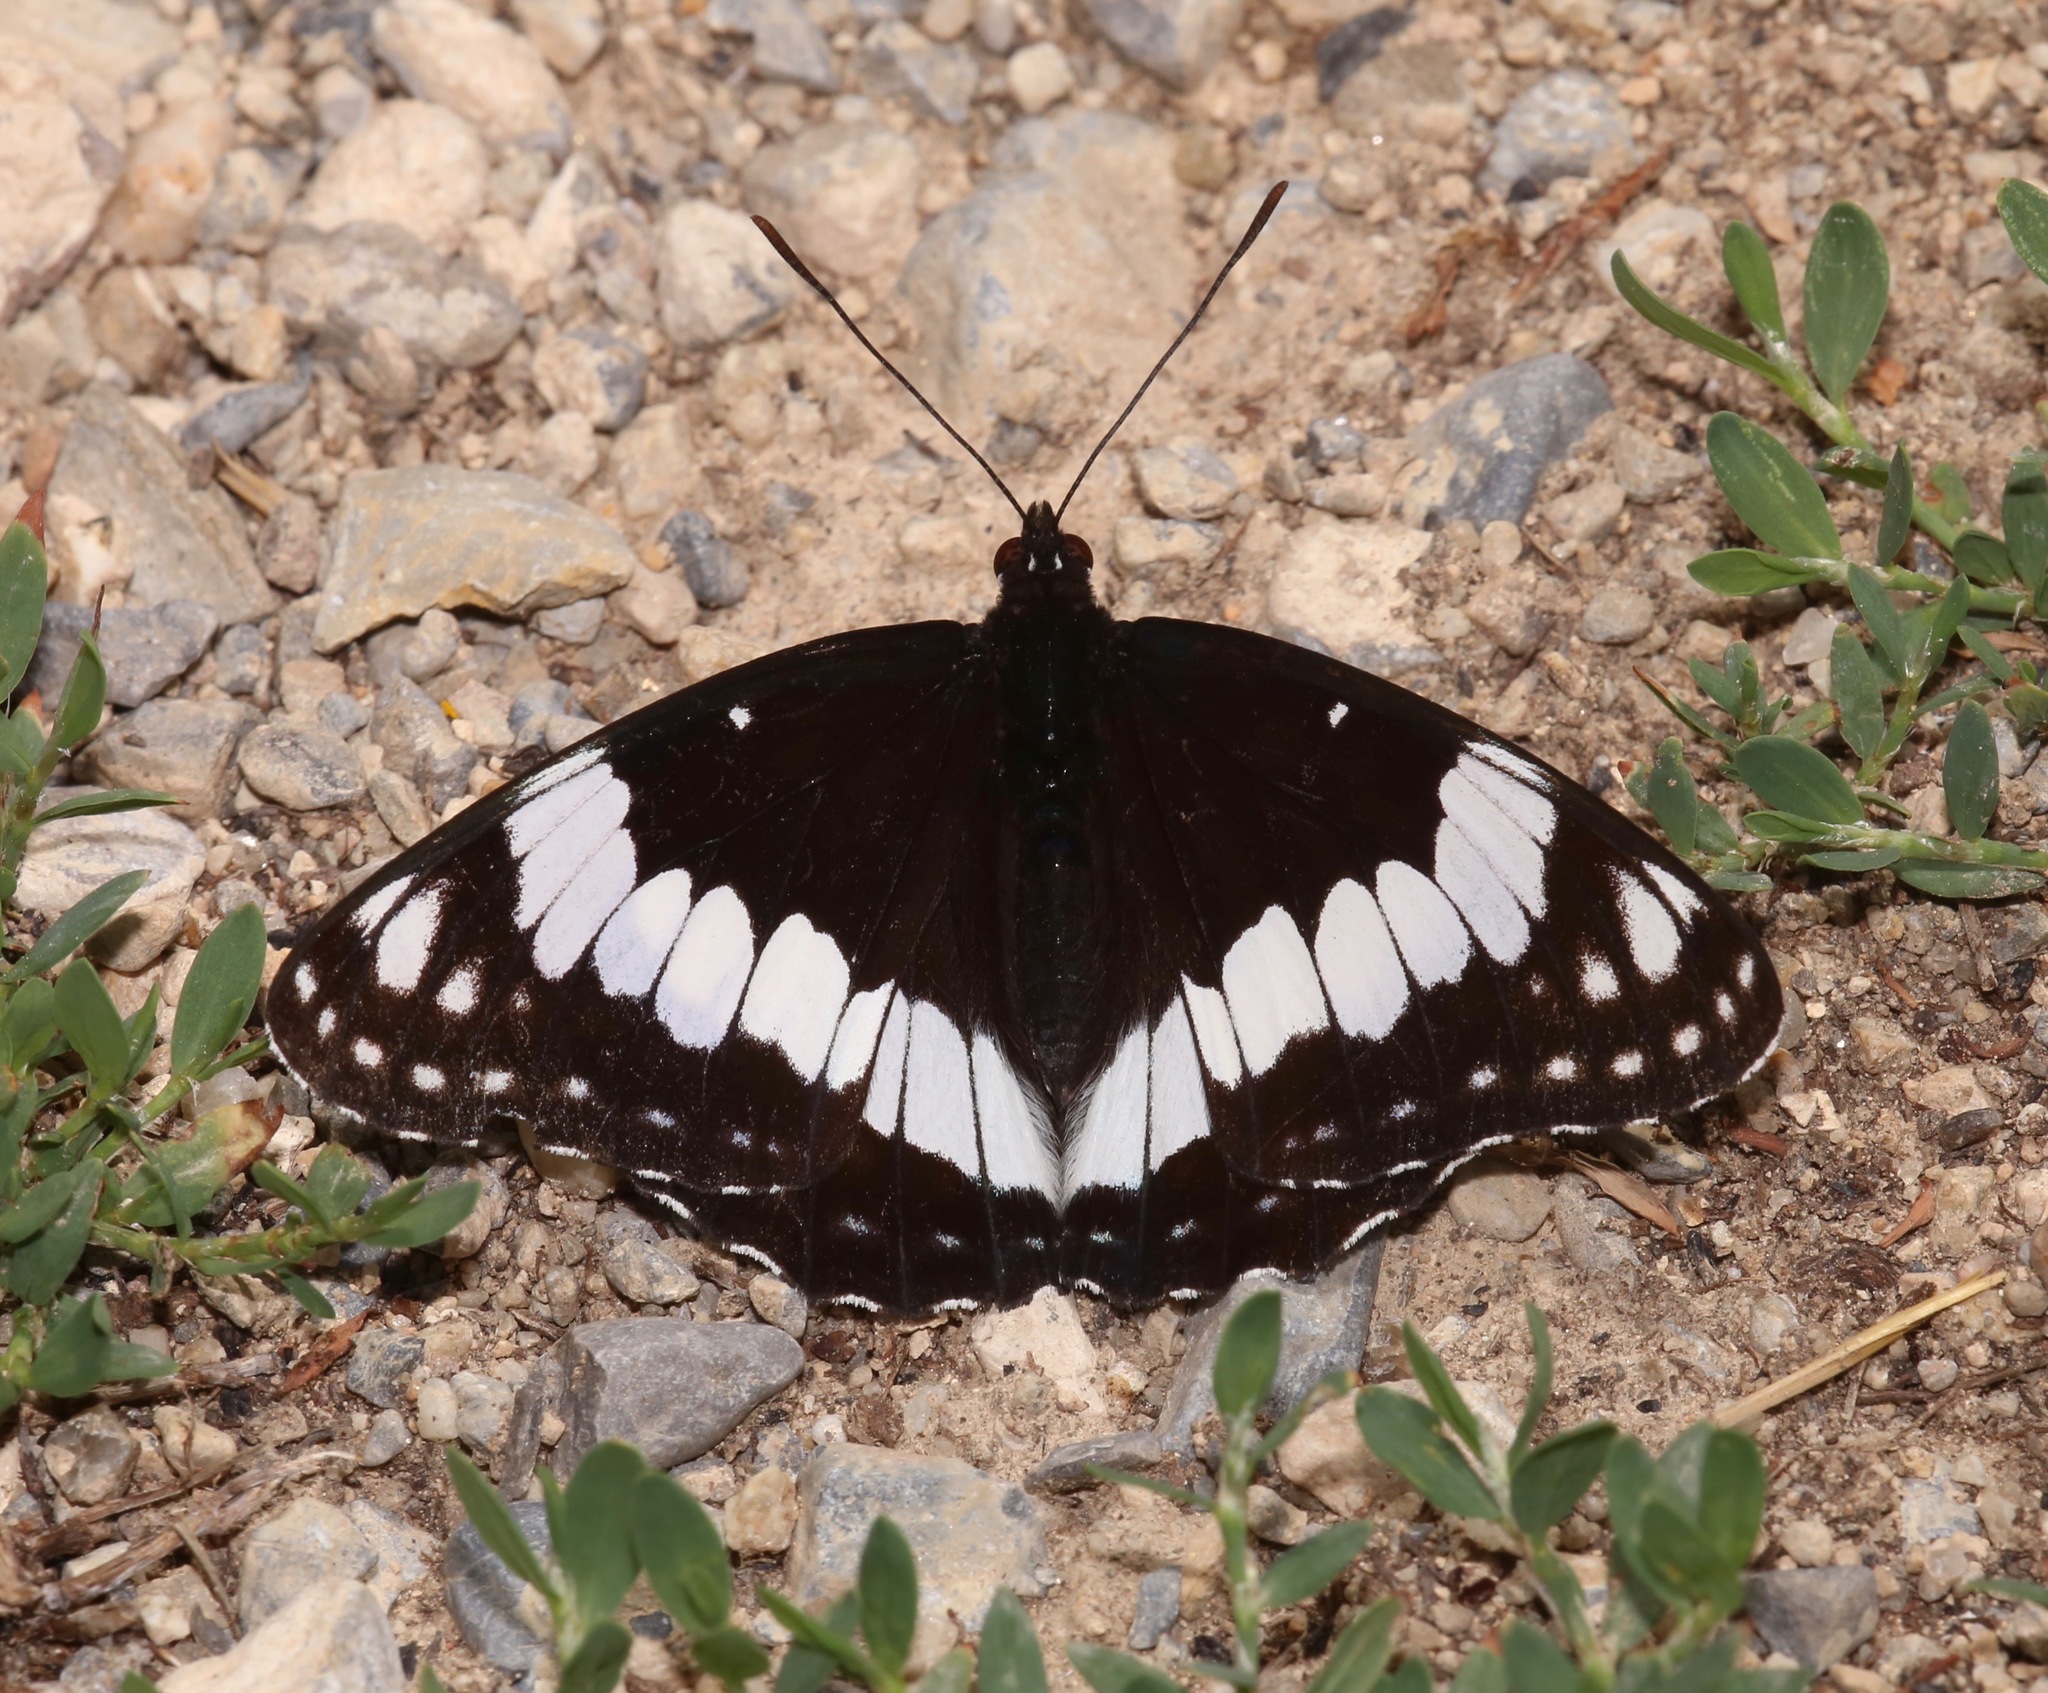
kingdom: Animalia
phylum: Arthropoda
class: Insecta
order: Lepidoptera
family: Nymphalidae
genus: Limenitis
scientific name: Limenitis weidemeyerii
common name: Weidemeyer's admiral
